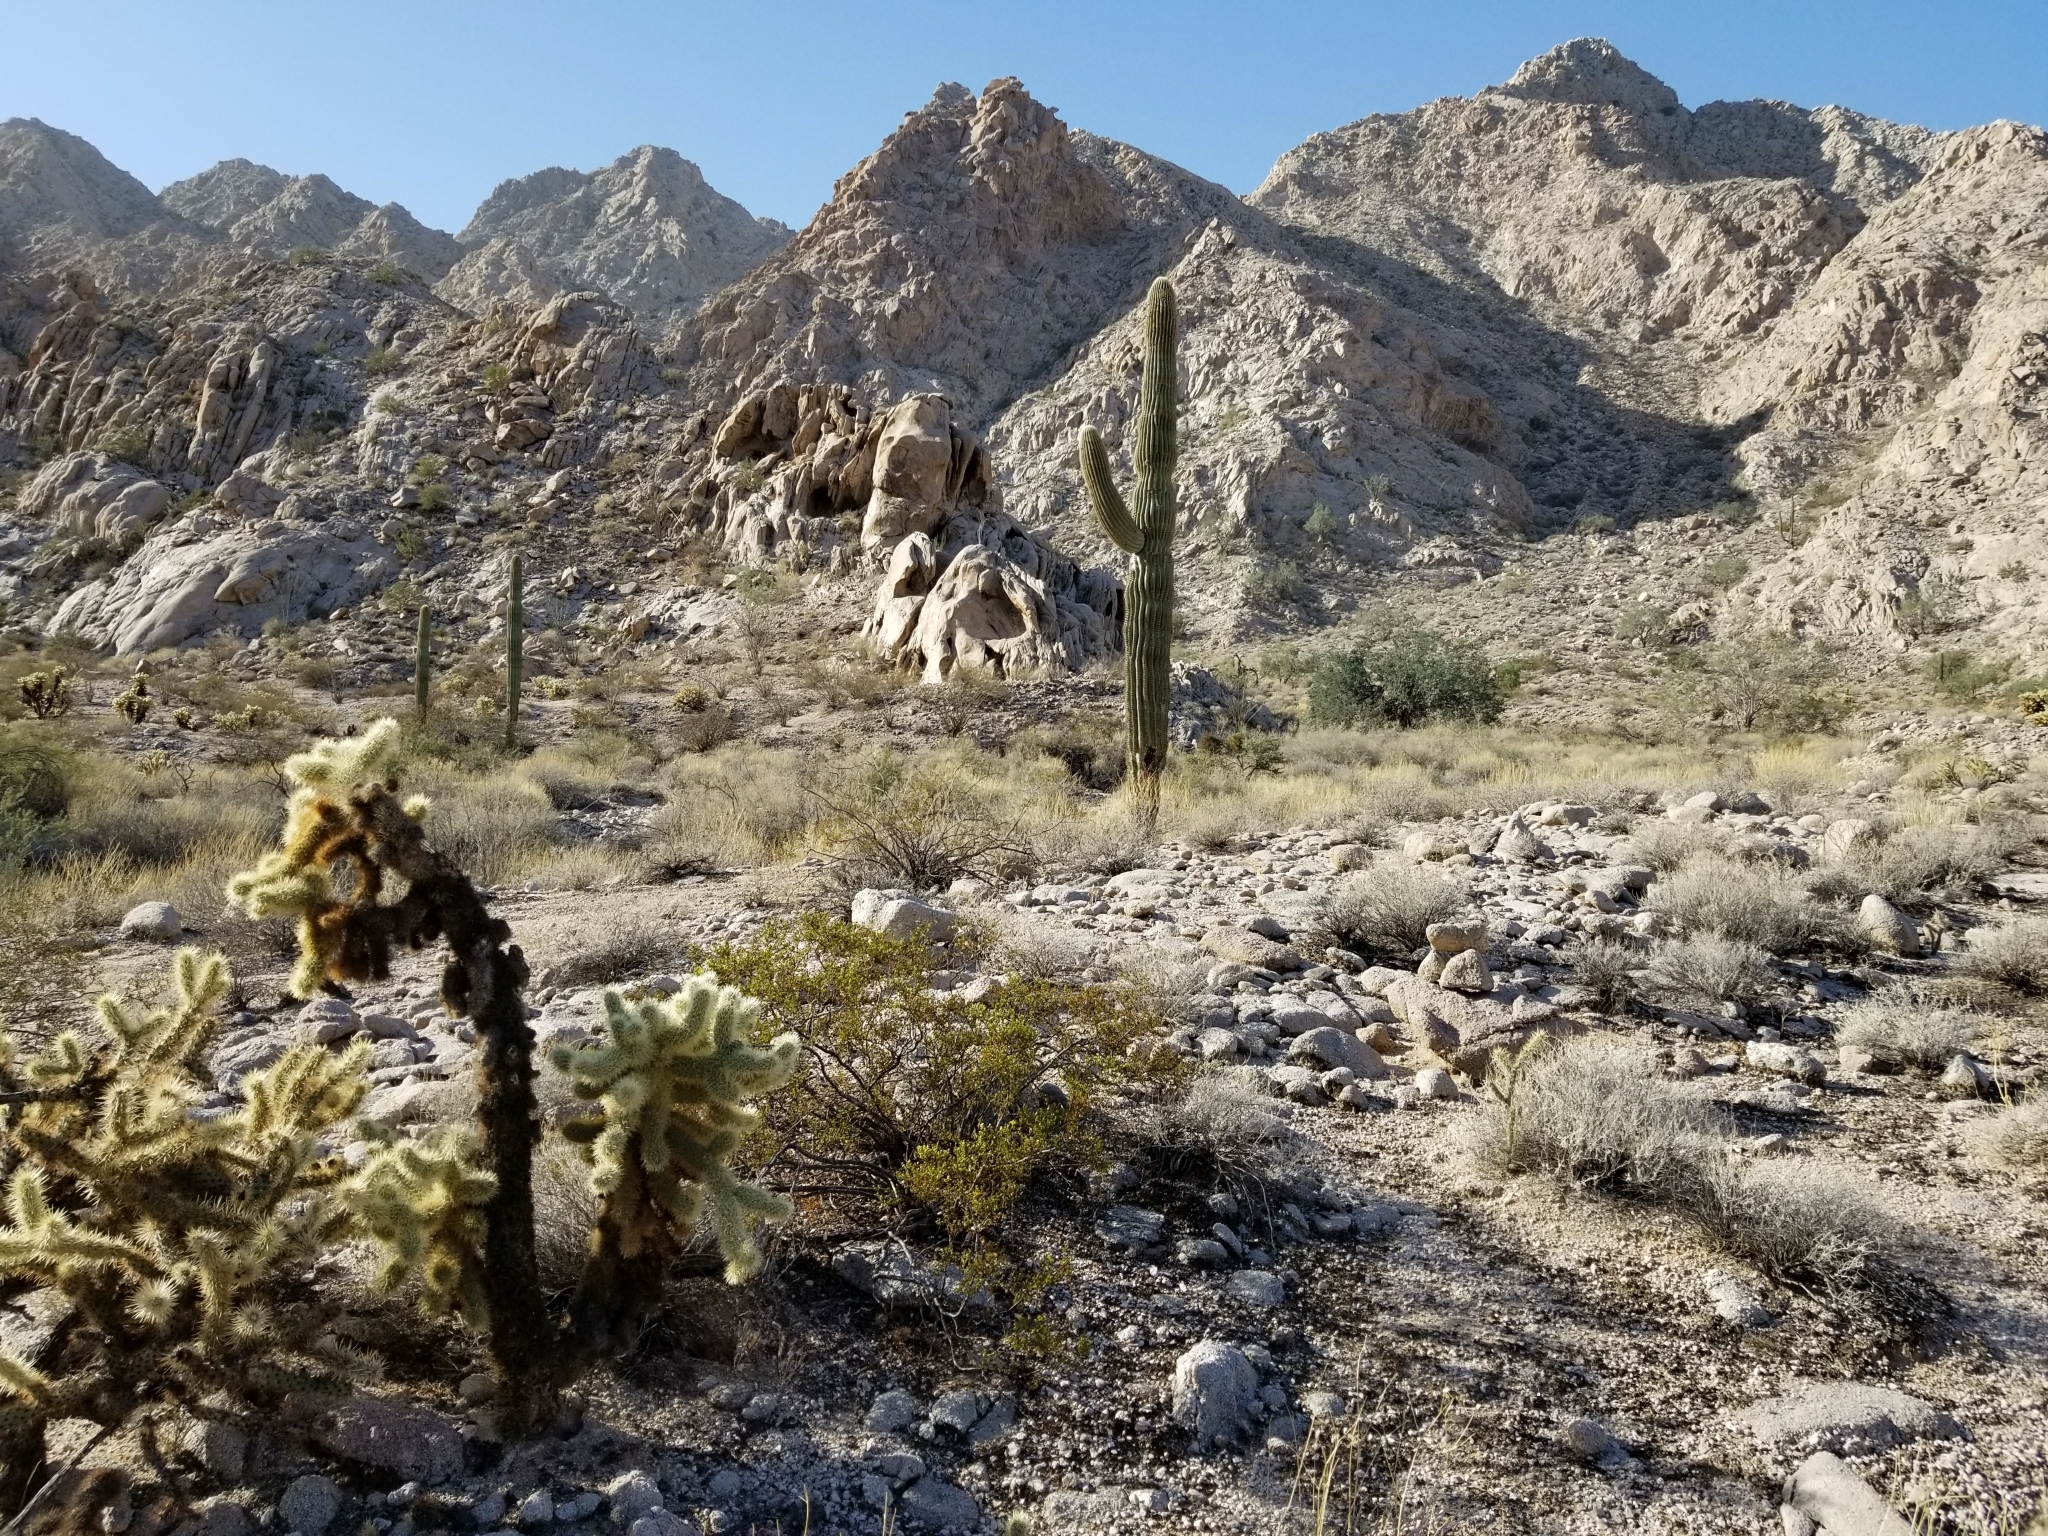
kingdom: Plantae
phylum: Tracheophyta
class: Magnoliopsida
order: Caryophyllales
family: Cactaceae
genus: Cylindropuntia
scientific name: Cylindropuntia fosbergii
